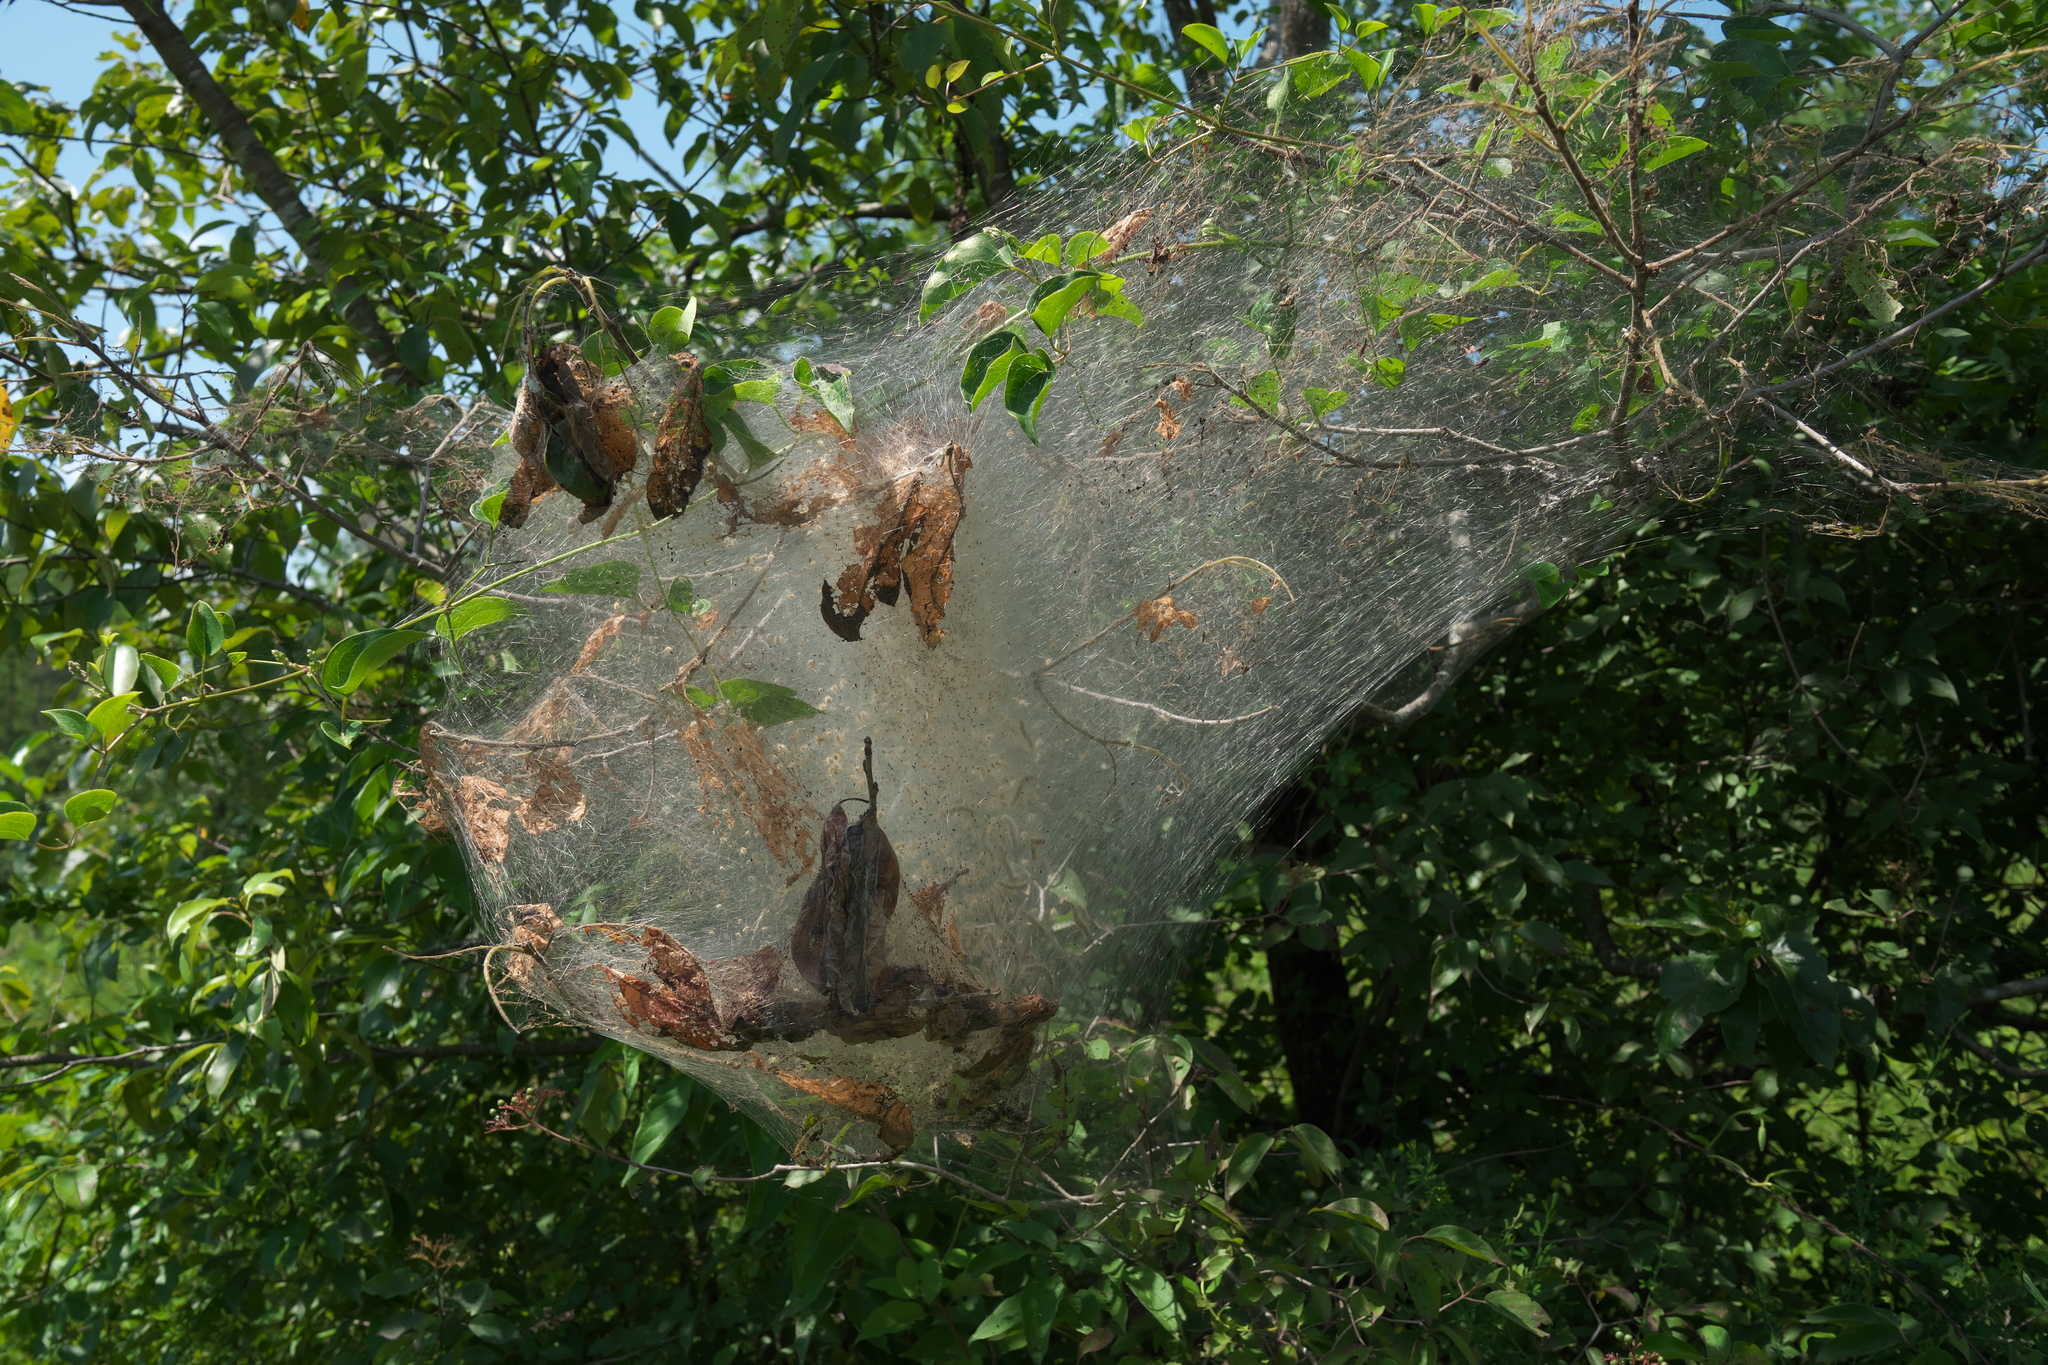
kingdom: Animalia
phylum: Arthropoda
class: Insecta
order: Lepidoptera
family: Erebidae
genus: Hyphantria
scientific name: Hyphantria cunea
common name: American white moth
